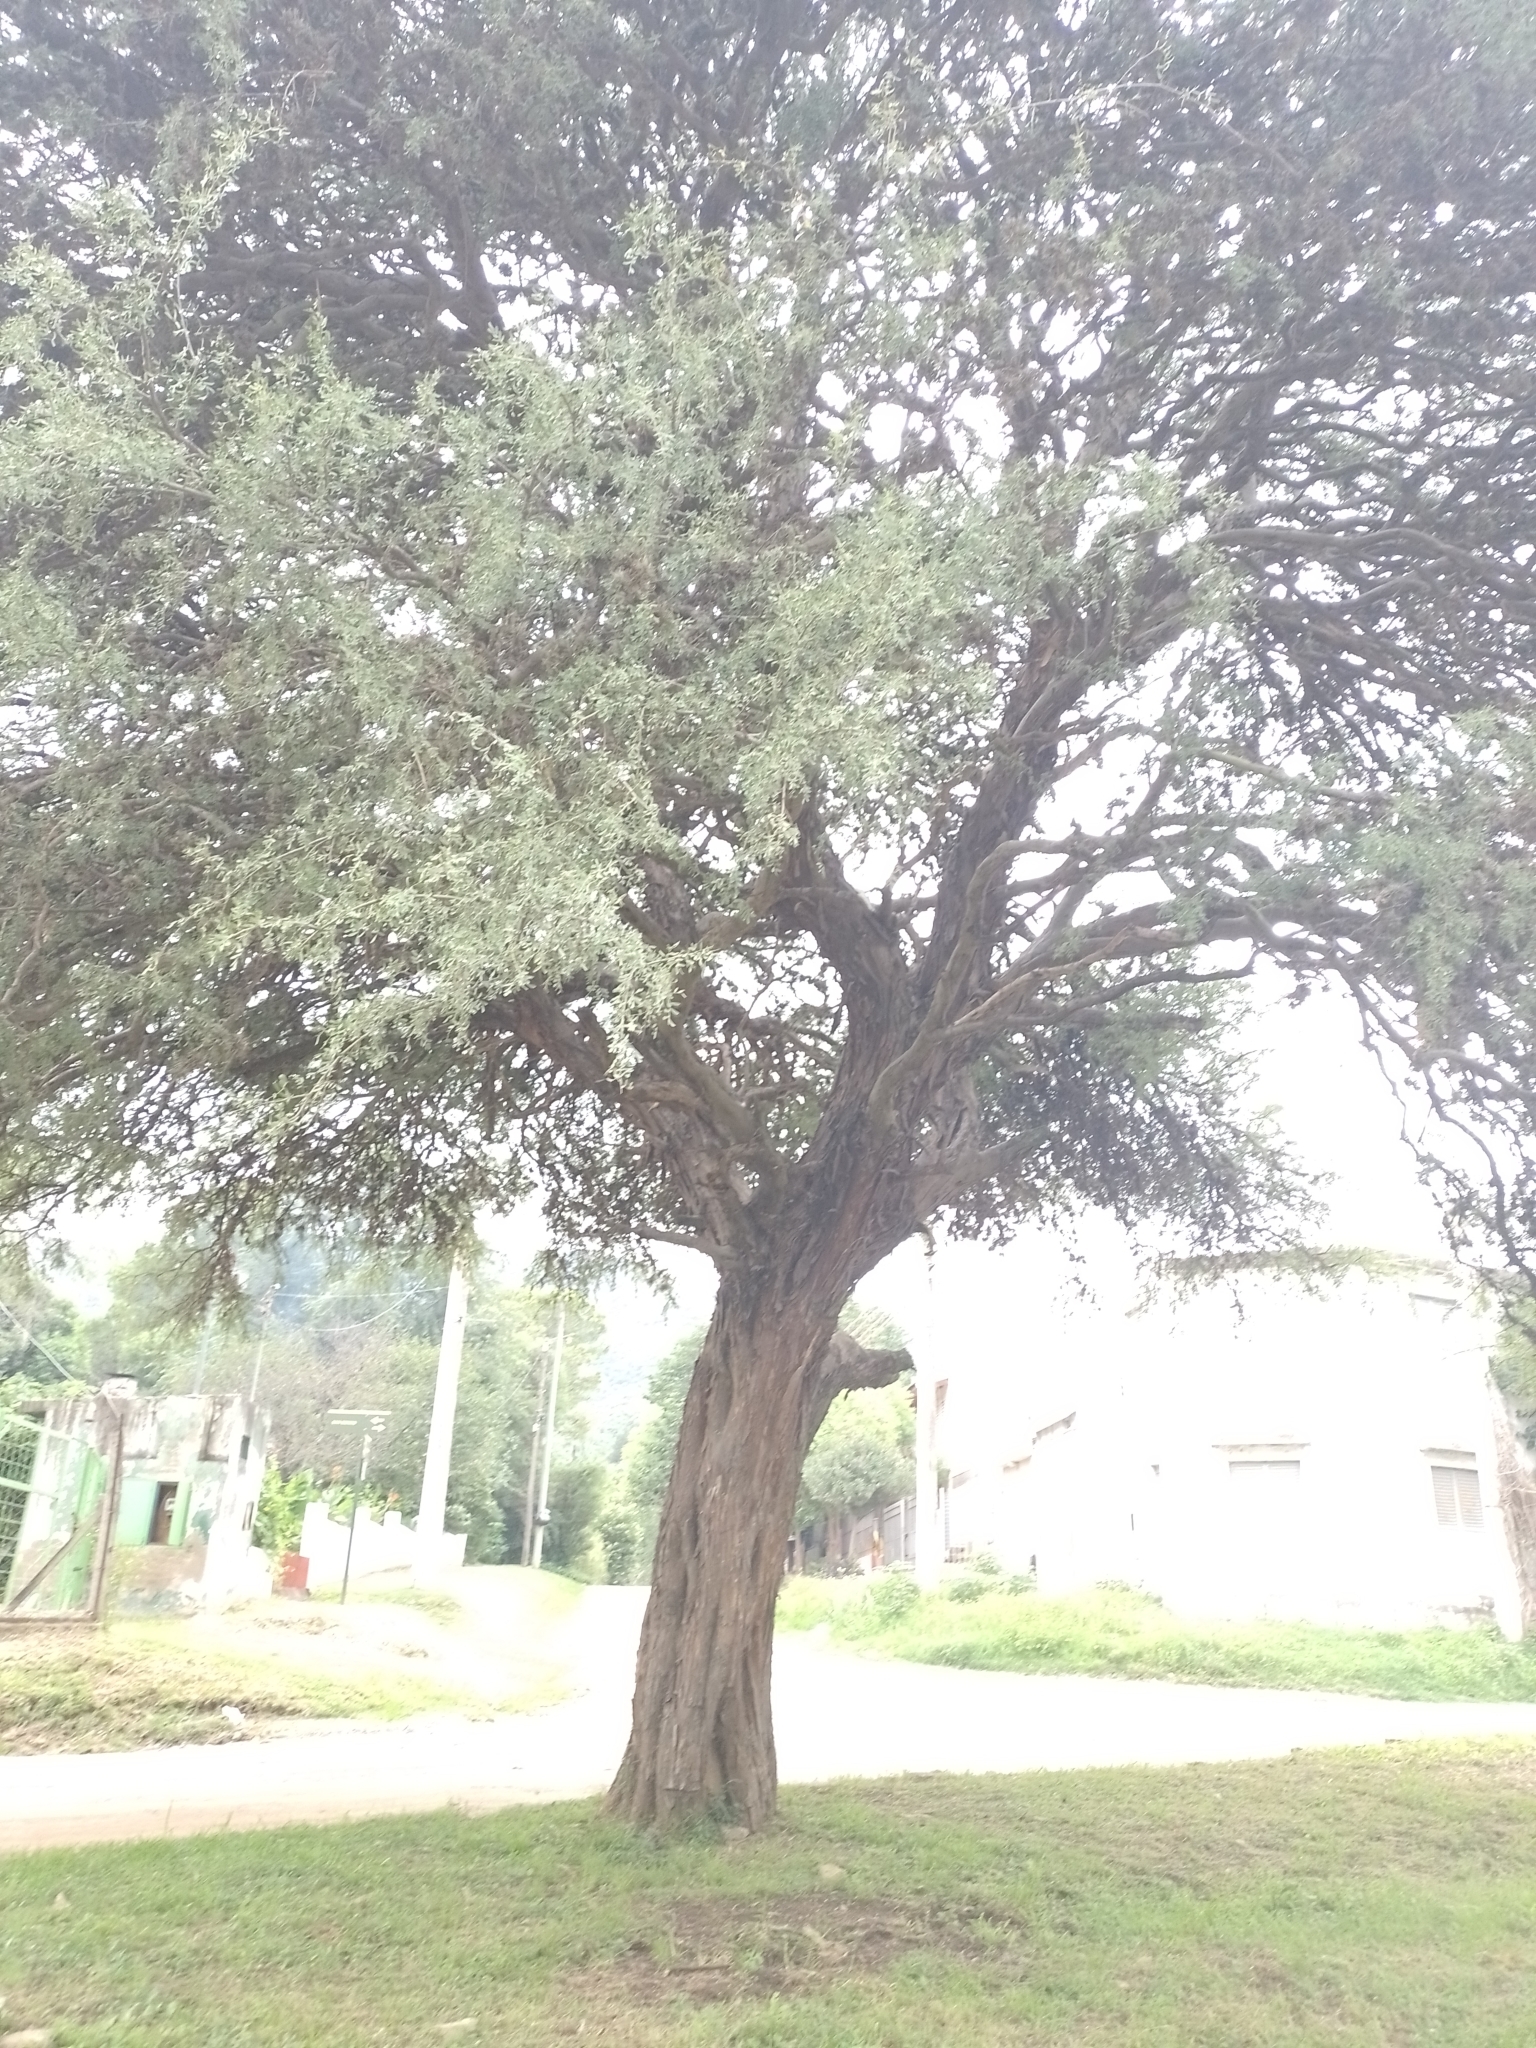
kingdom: Plantae
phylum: Tracheophyta
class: Magnoliopsida
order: Fabales
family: Fabaceae
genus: Geoffroea
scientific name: Geoffroea decorticans
